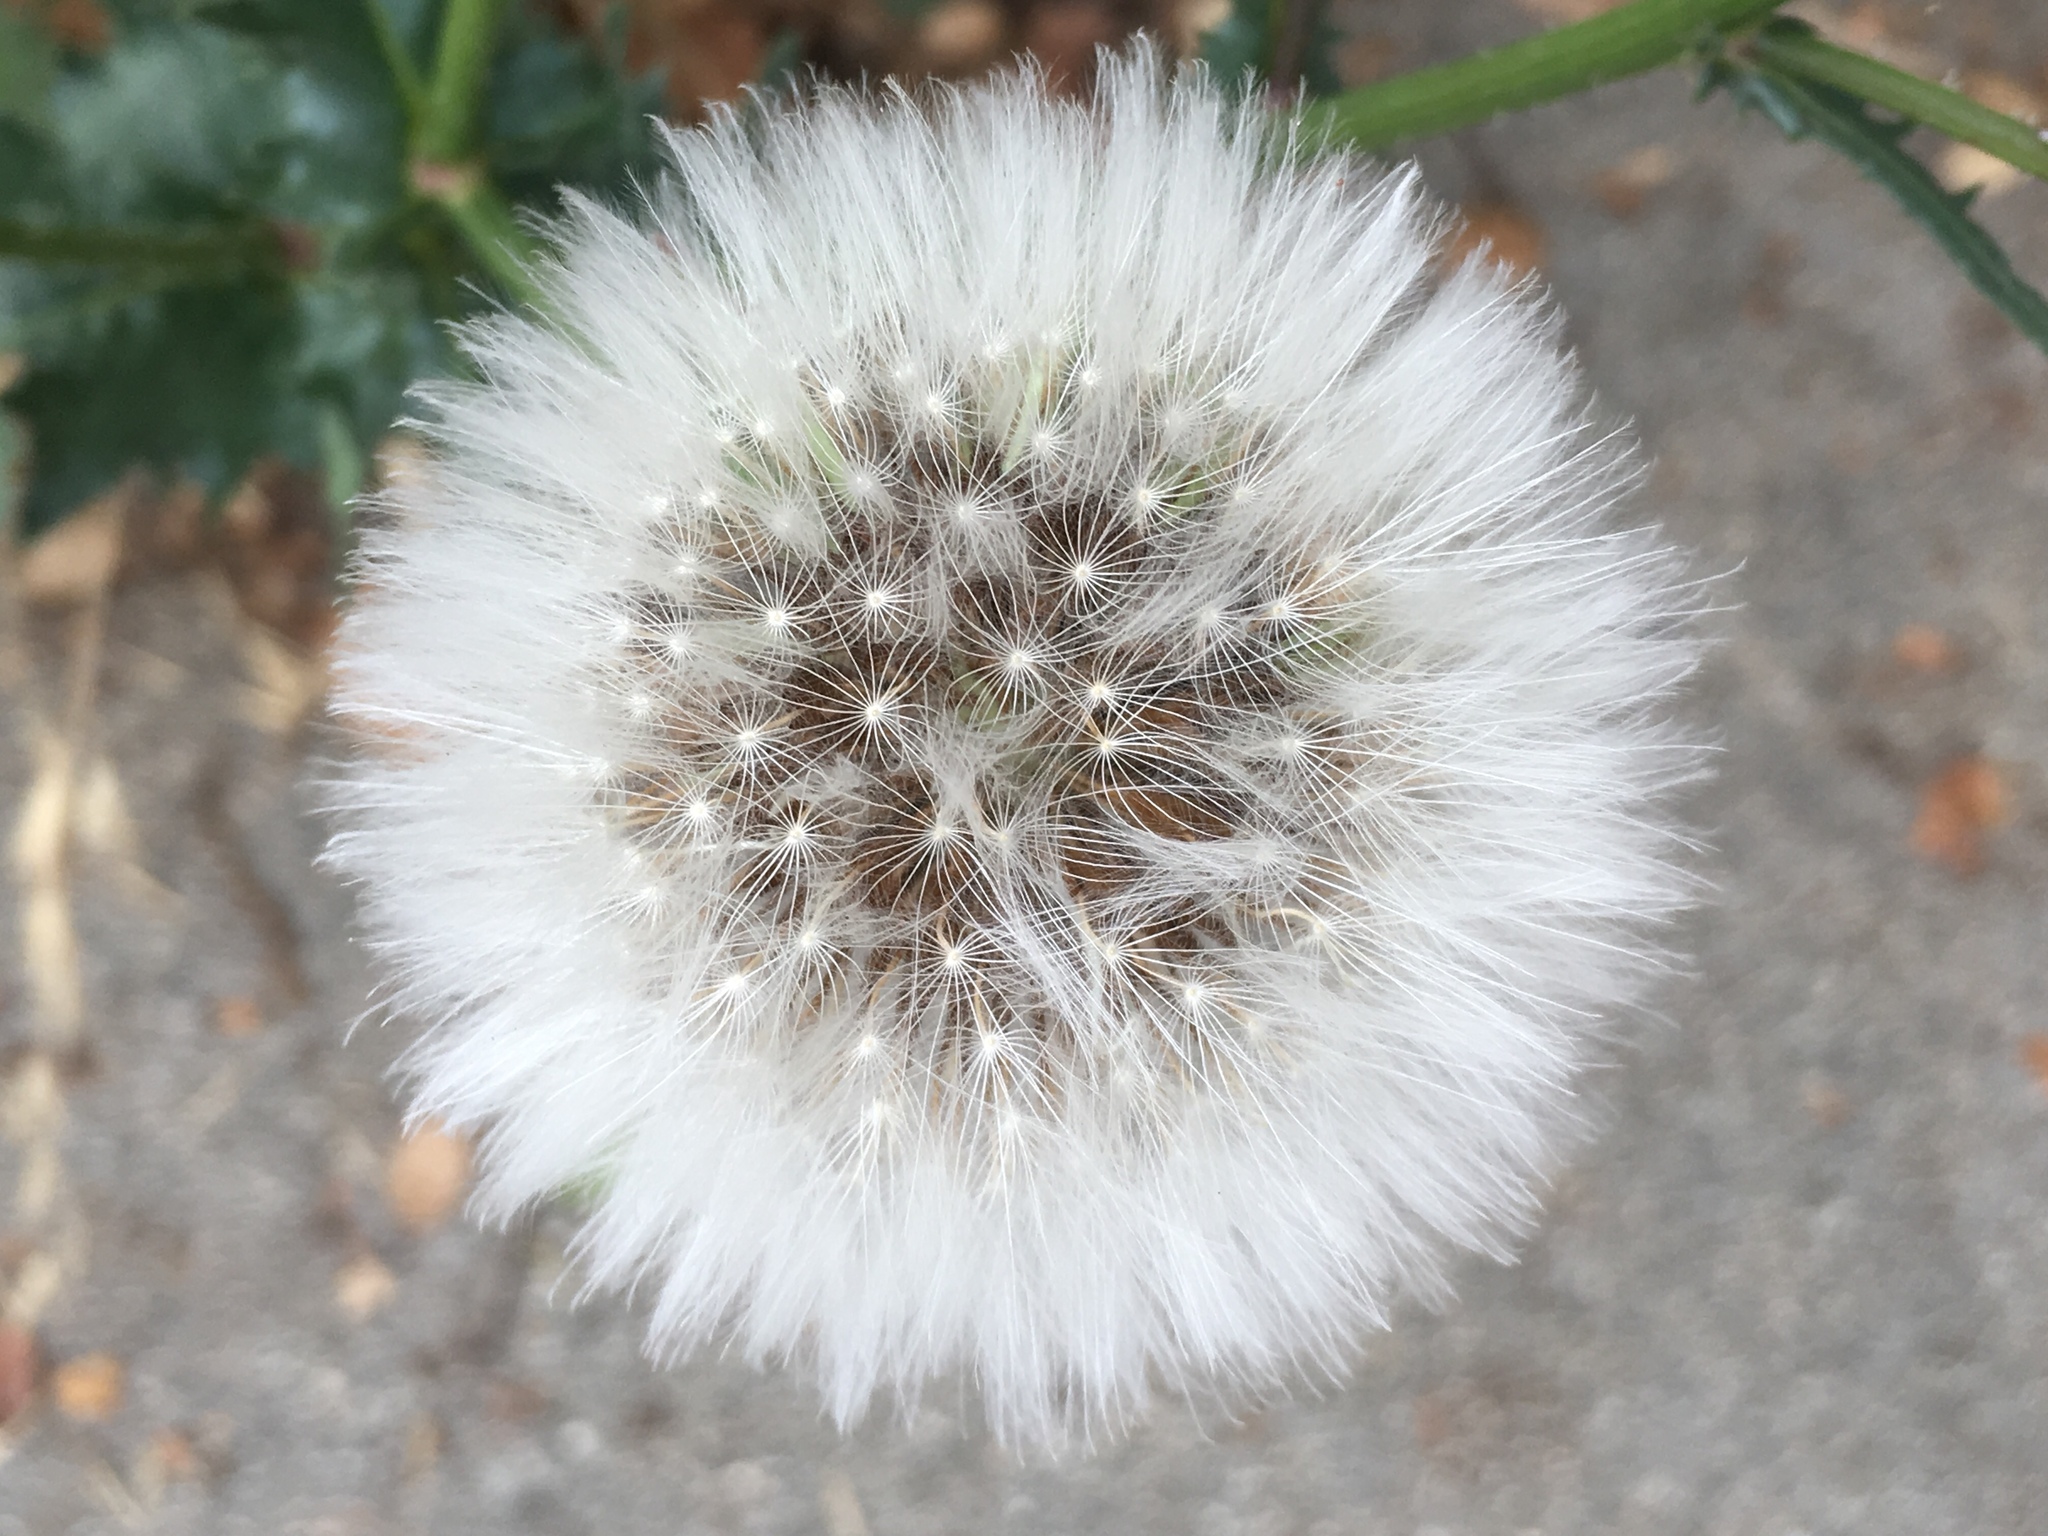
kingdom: Plantae
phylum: Tracheophyta
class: Magnoliopsida
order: Asterales
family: Asteraceae
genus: Urospermum
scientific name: Urospermum picroides
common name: False hawkbit
